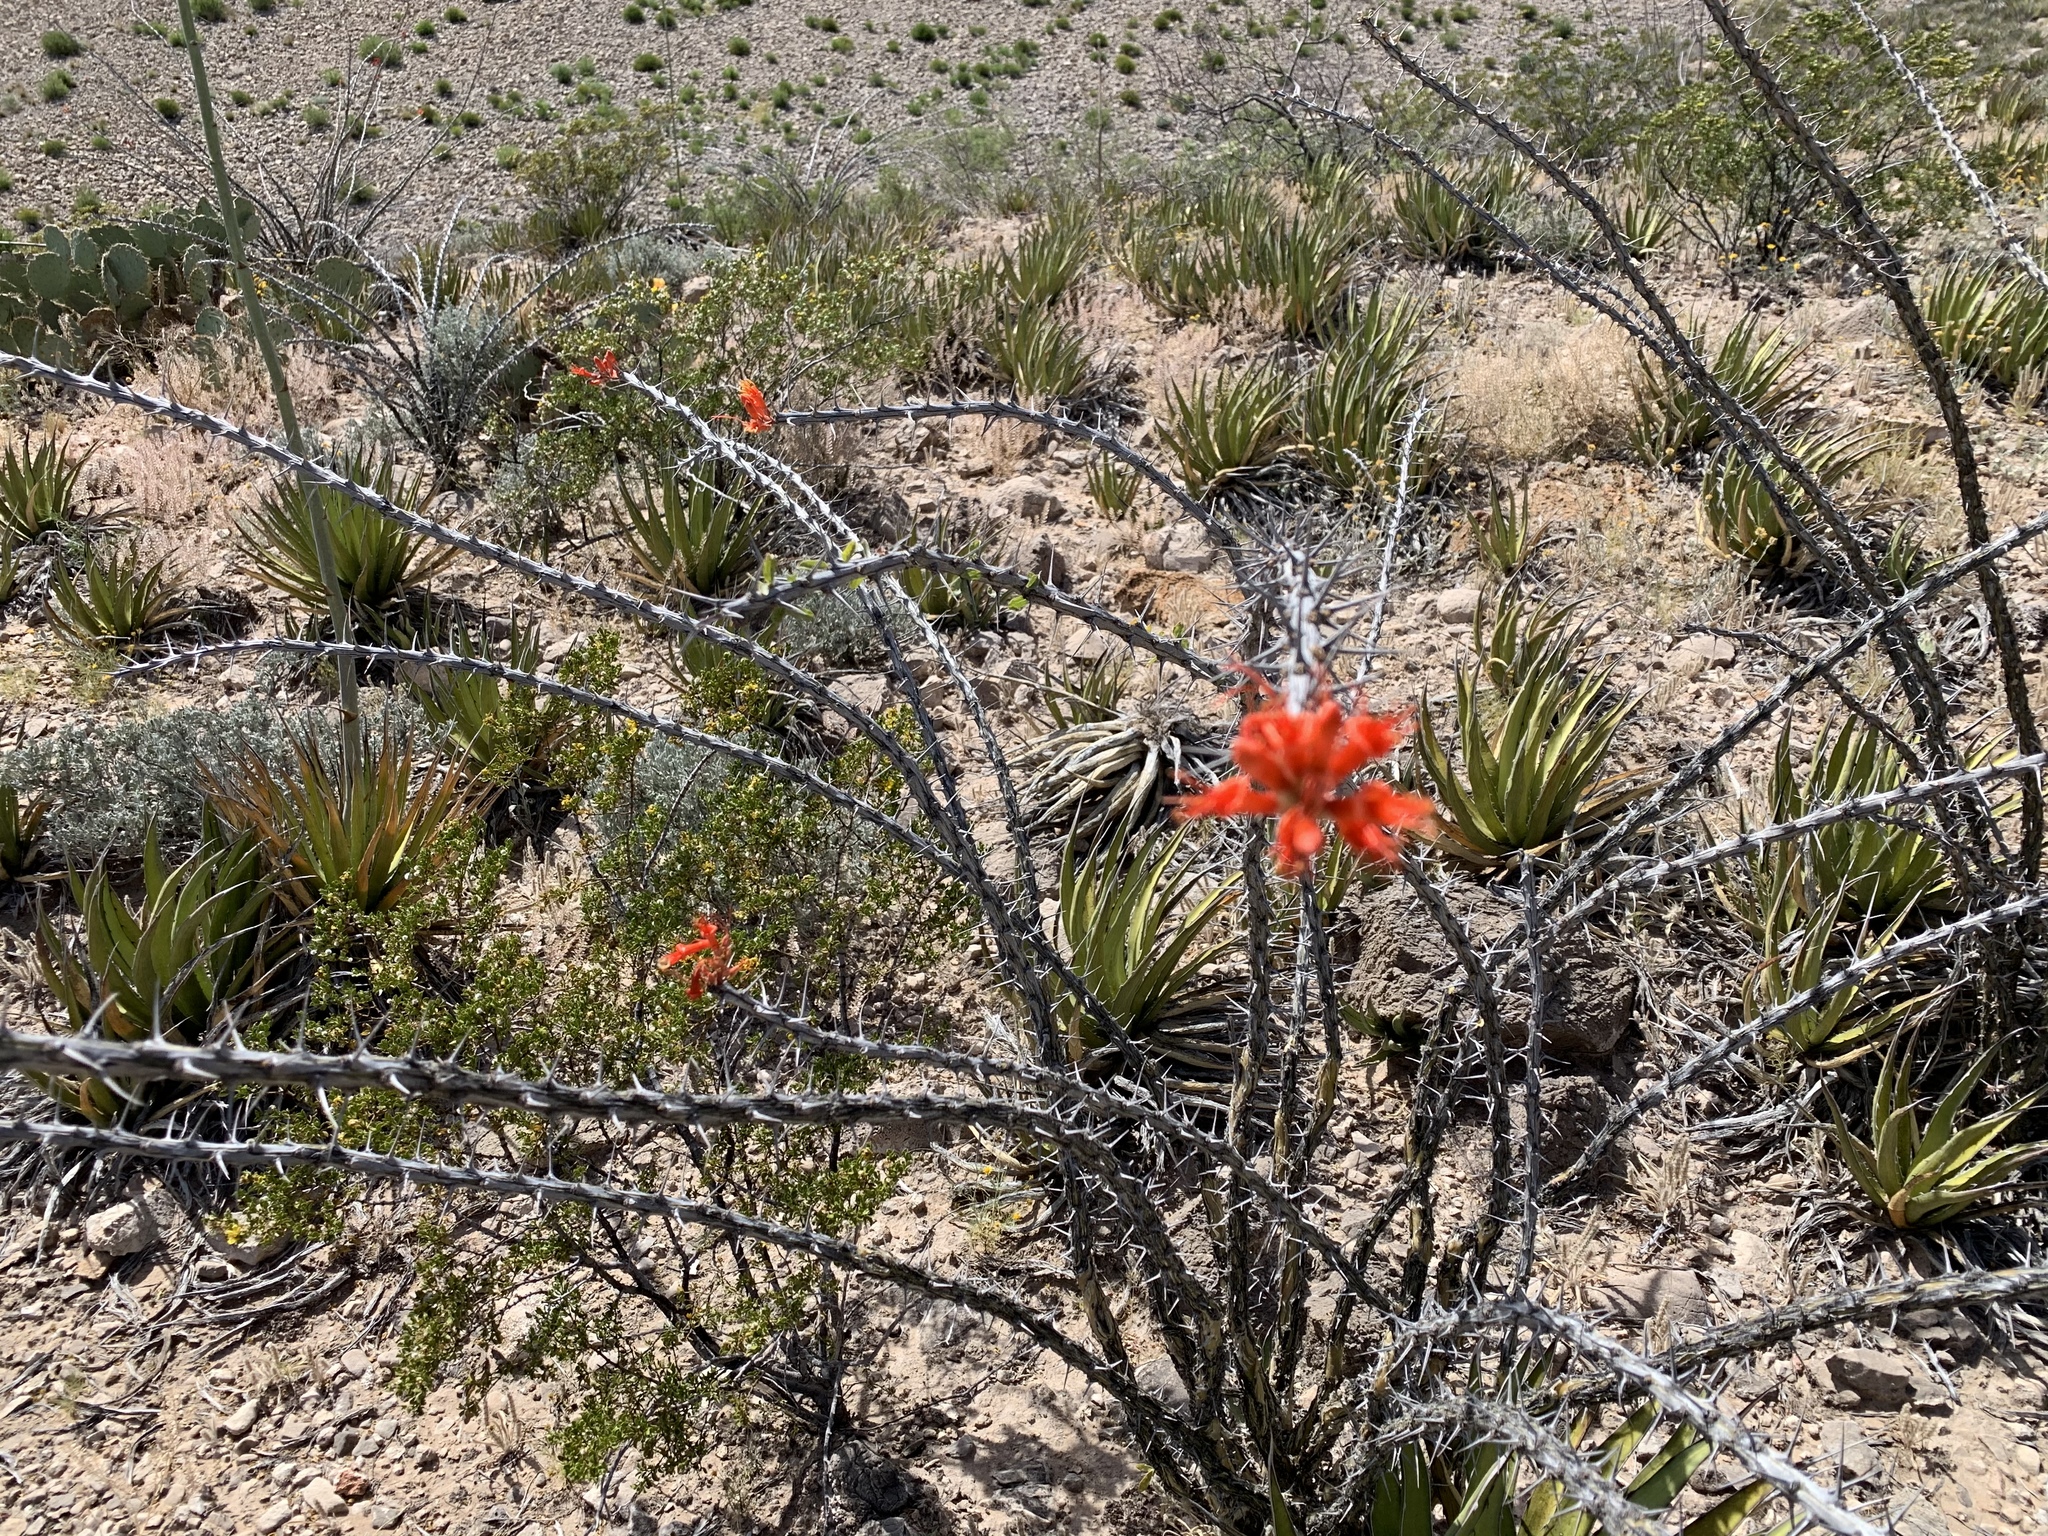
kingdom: Plantae
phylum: Tracheophyta
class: Magnoliopsida
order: Ericales
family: Fouquieriaceae
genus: Fouquieria
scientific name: Fouquieria splendens
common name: Vine-cactus
